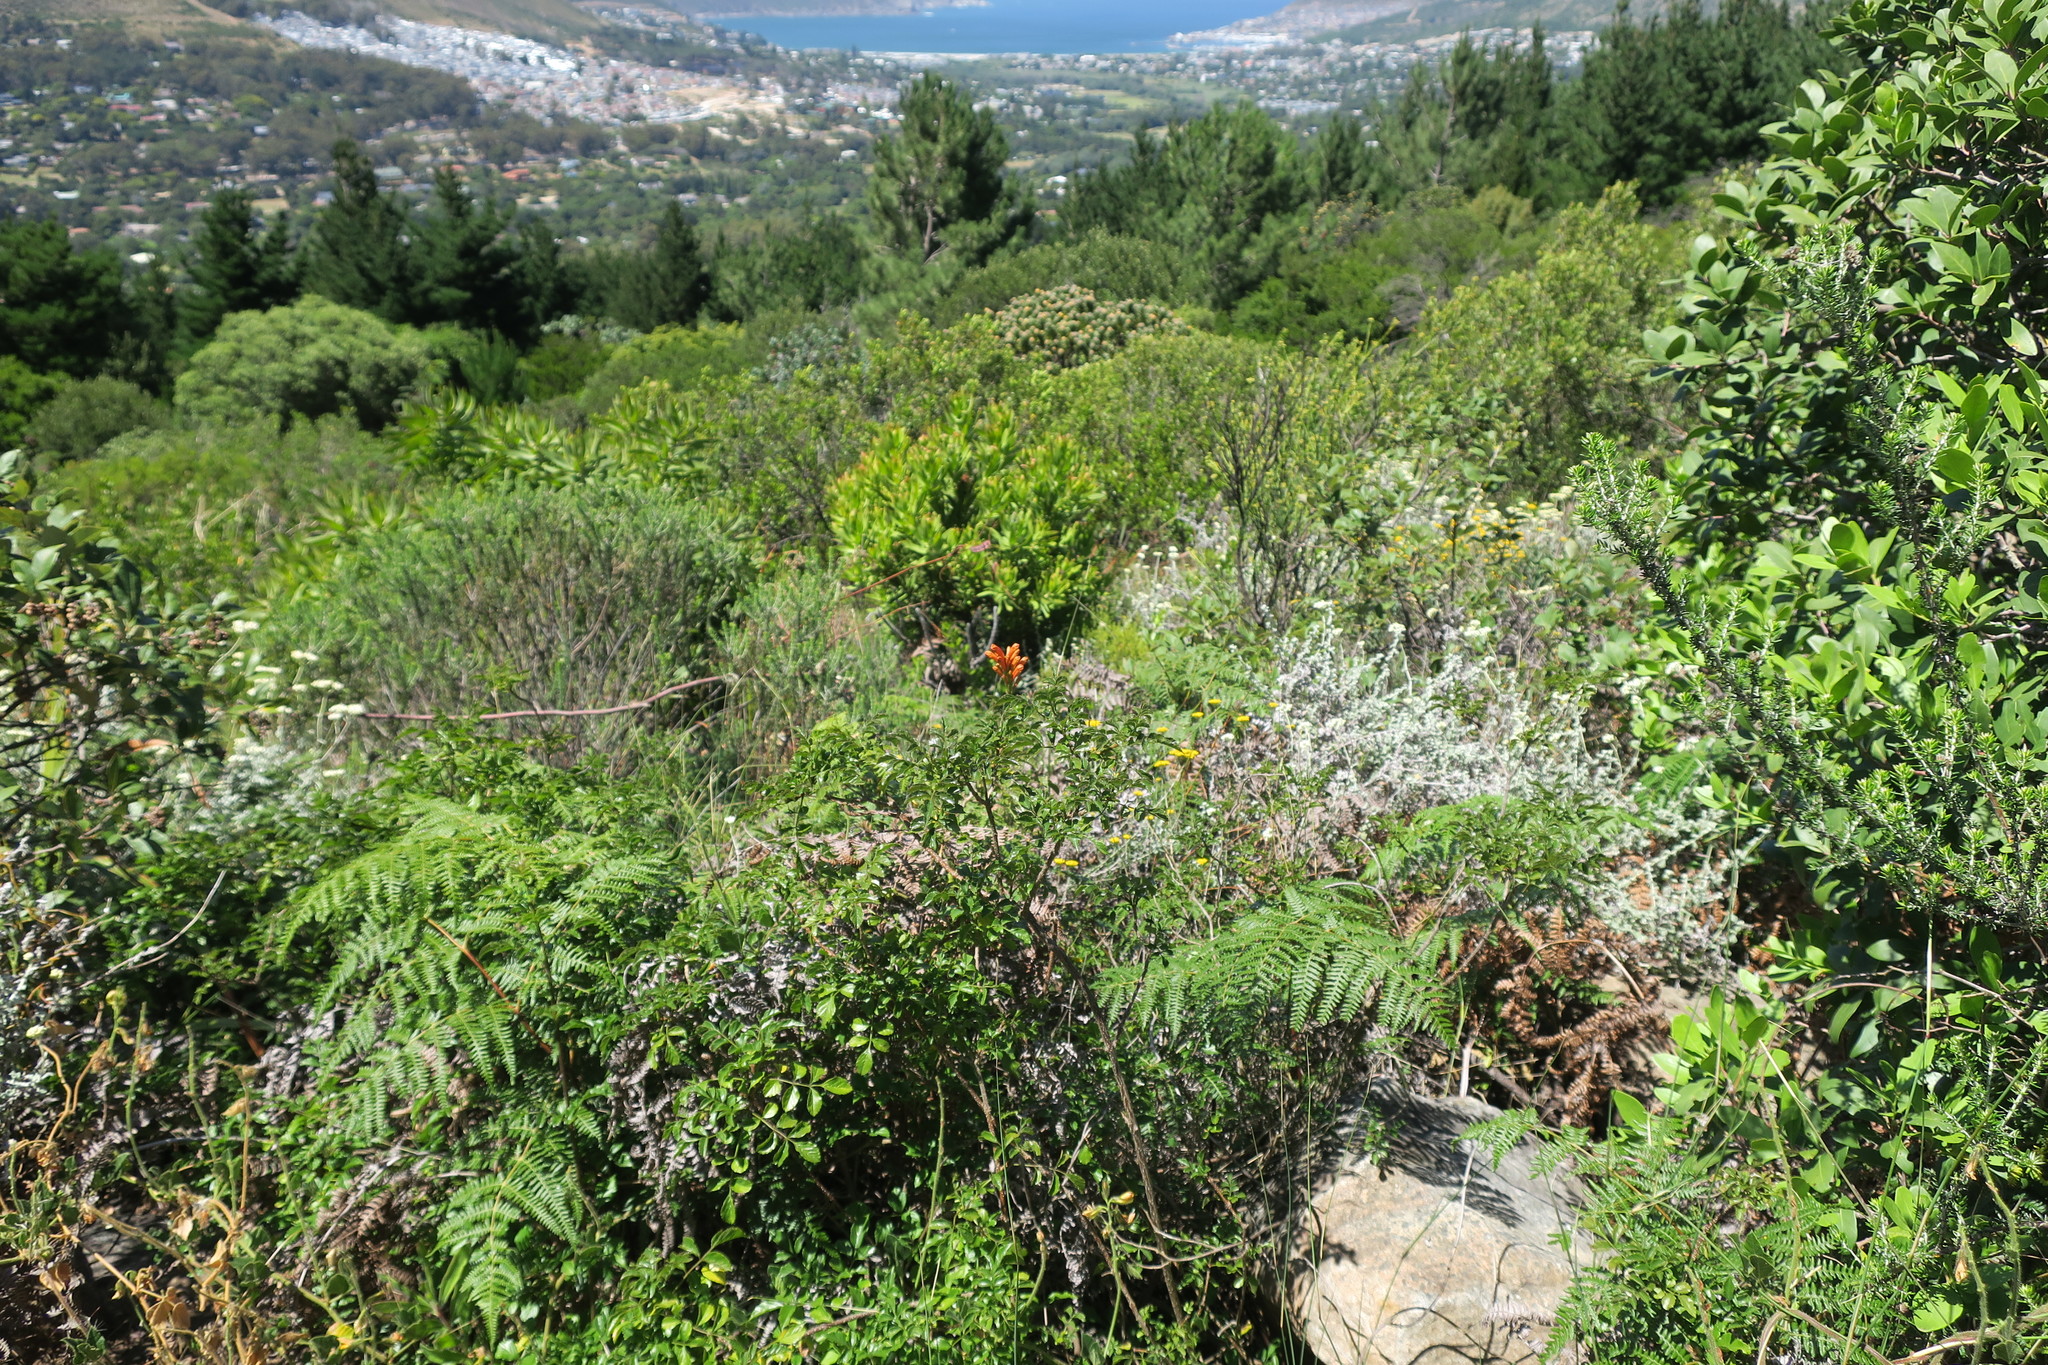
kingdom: Plantae
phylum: Tracheophyta
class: Magnoliopsida
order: Lamiales
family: Bignoniaceae
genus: Tecomaria
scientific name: Tecomaria capensis
